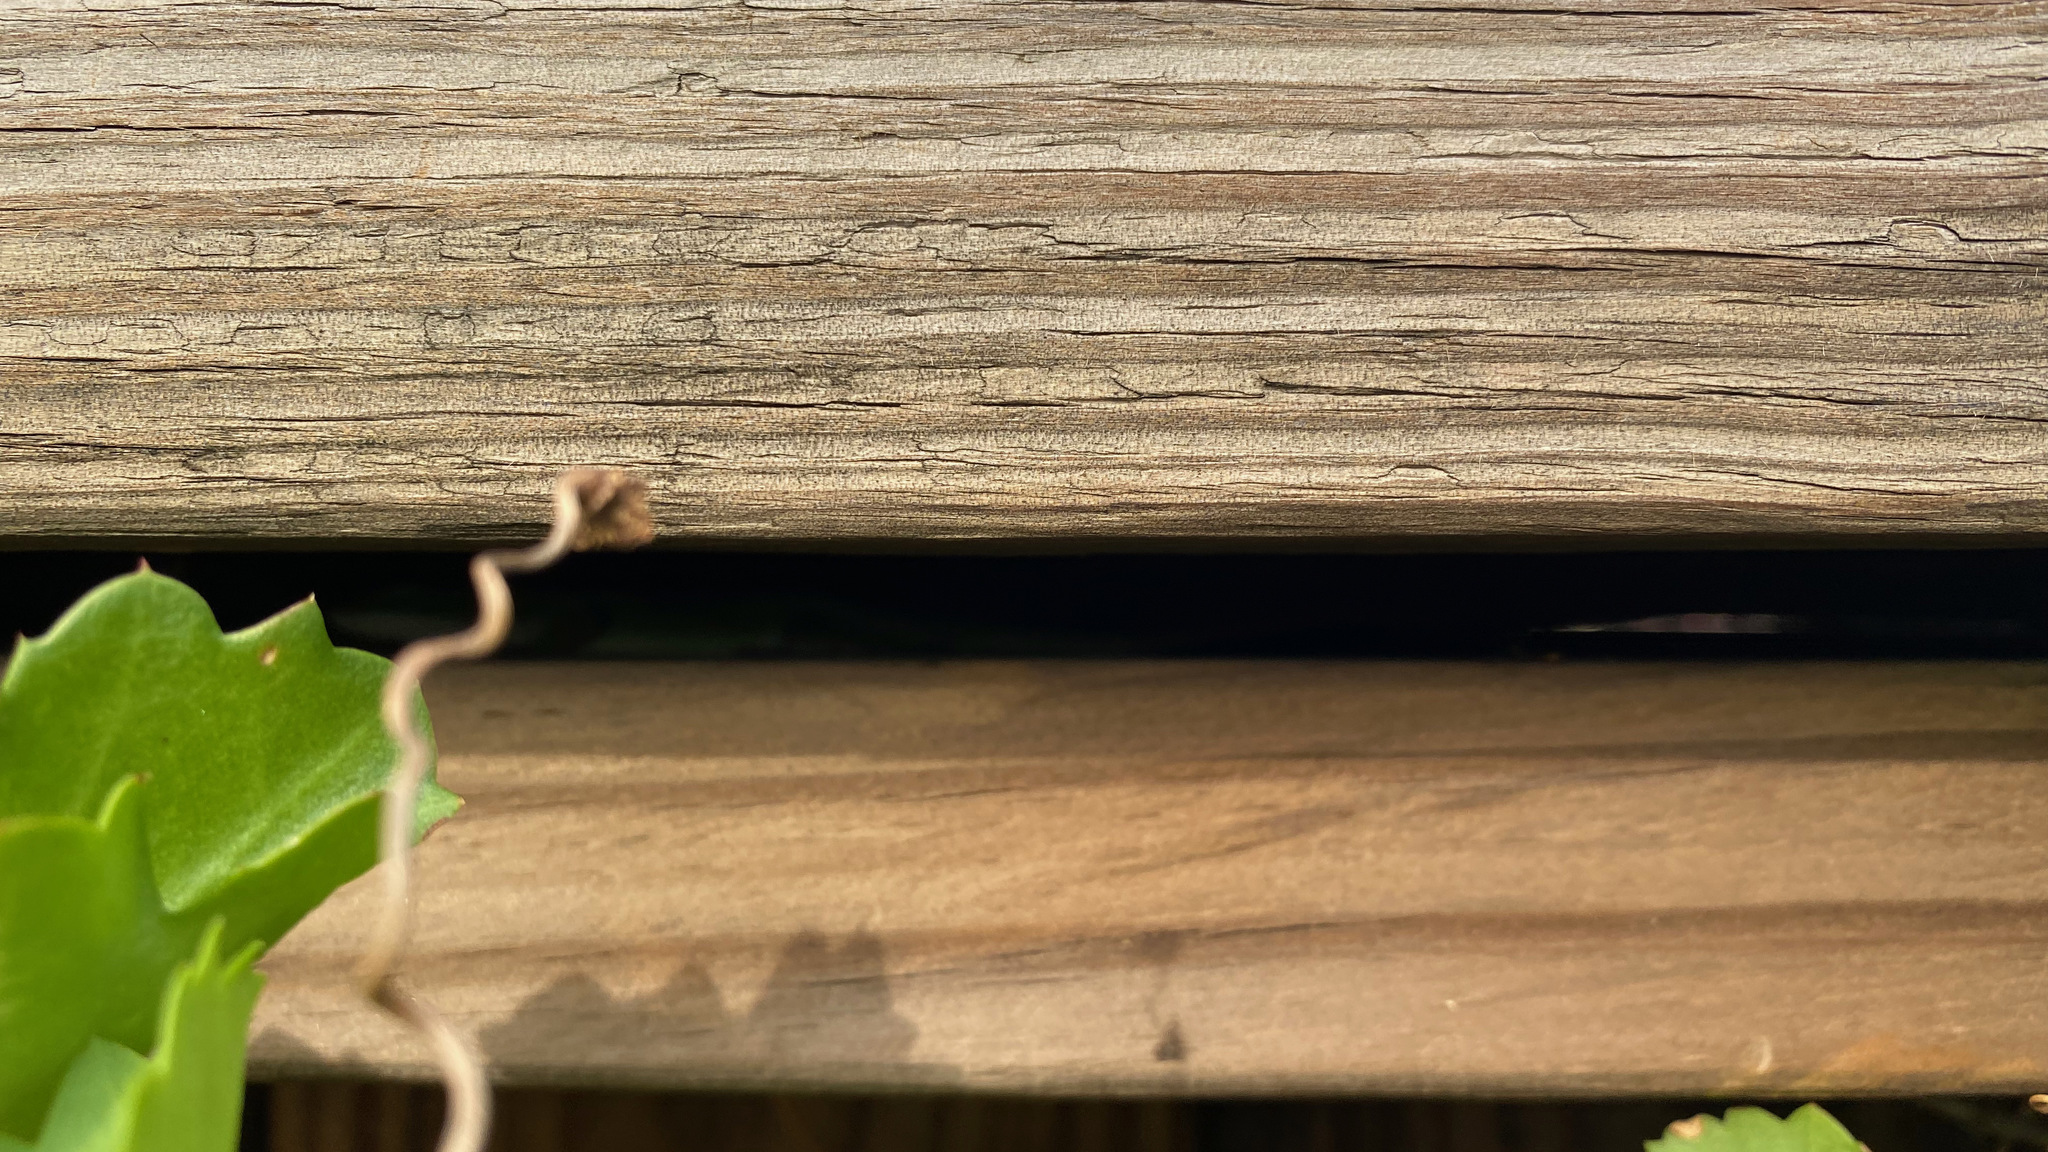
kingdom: Plantae
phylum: Tracheophyta
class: Magnoliopsida
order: Vitales
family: Vitaceae
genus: Cissus
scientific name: Cissus trifoliata
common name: Vine-sorrel
